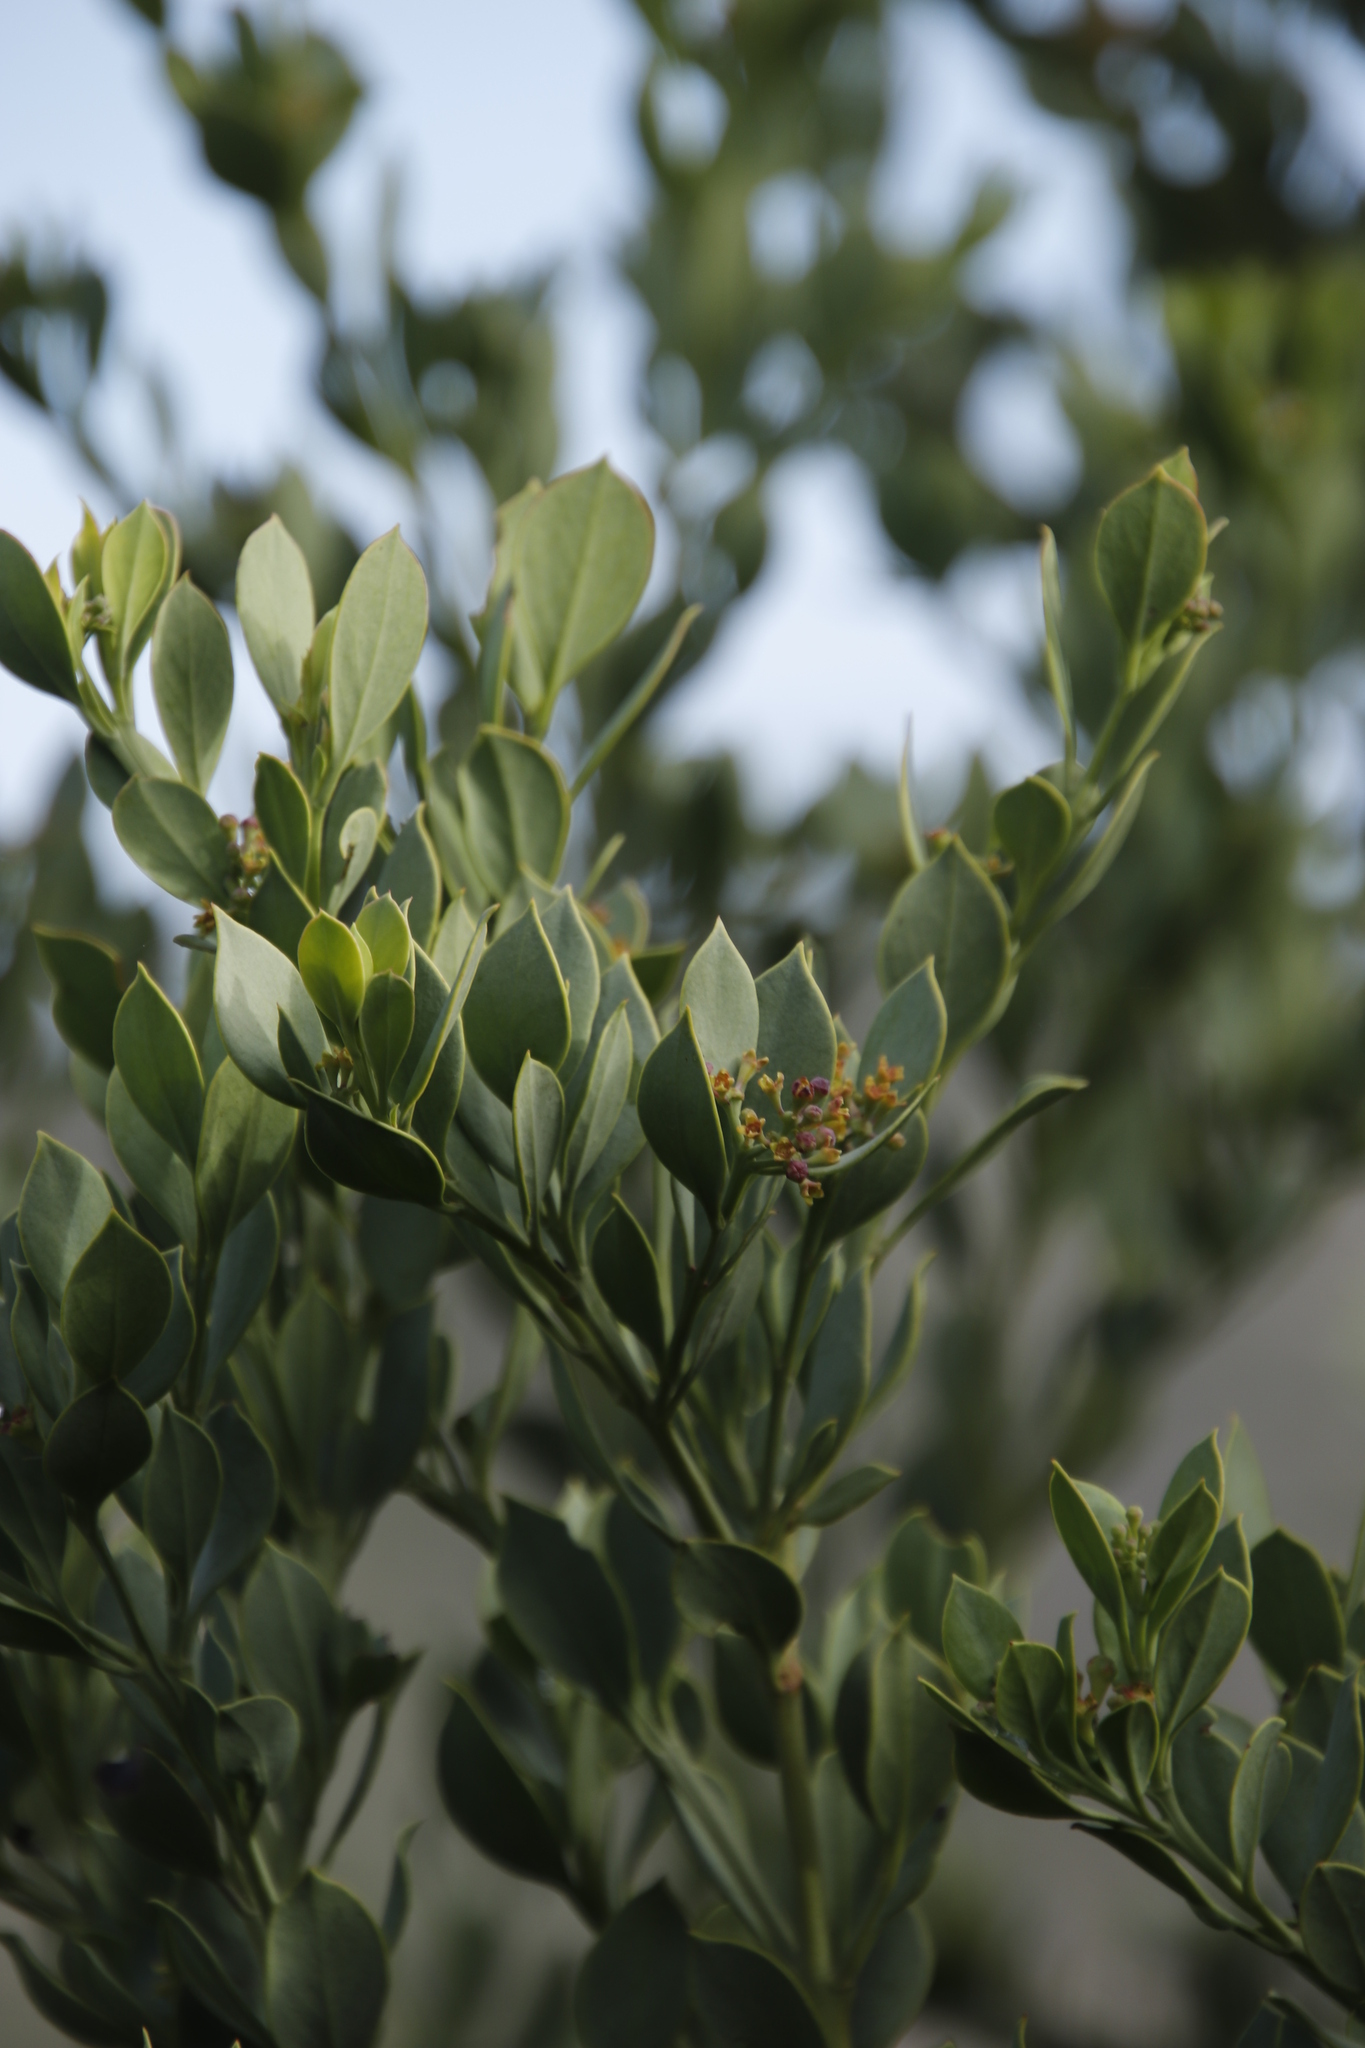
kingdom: Plantae
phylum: Tracheophyta
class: Magnoliopsida
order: Santalales
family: Santalaceae
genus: Osyris
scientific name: Osyris compressa
